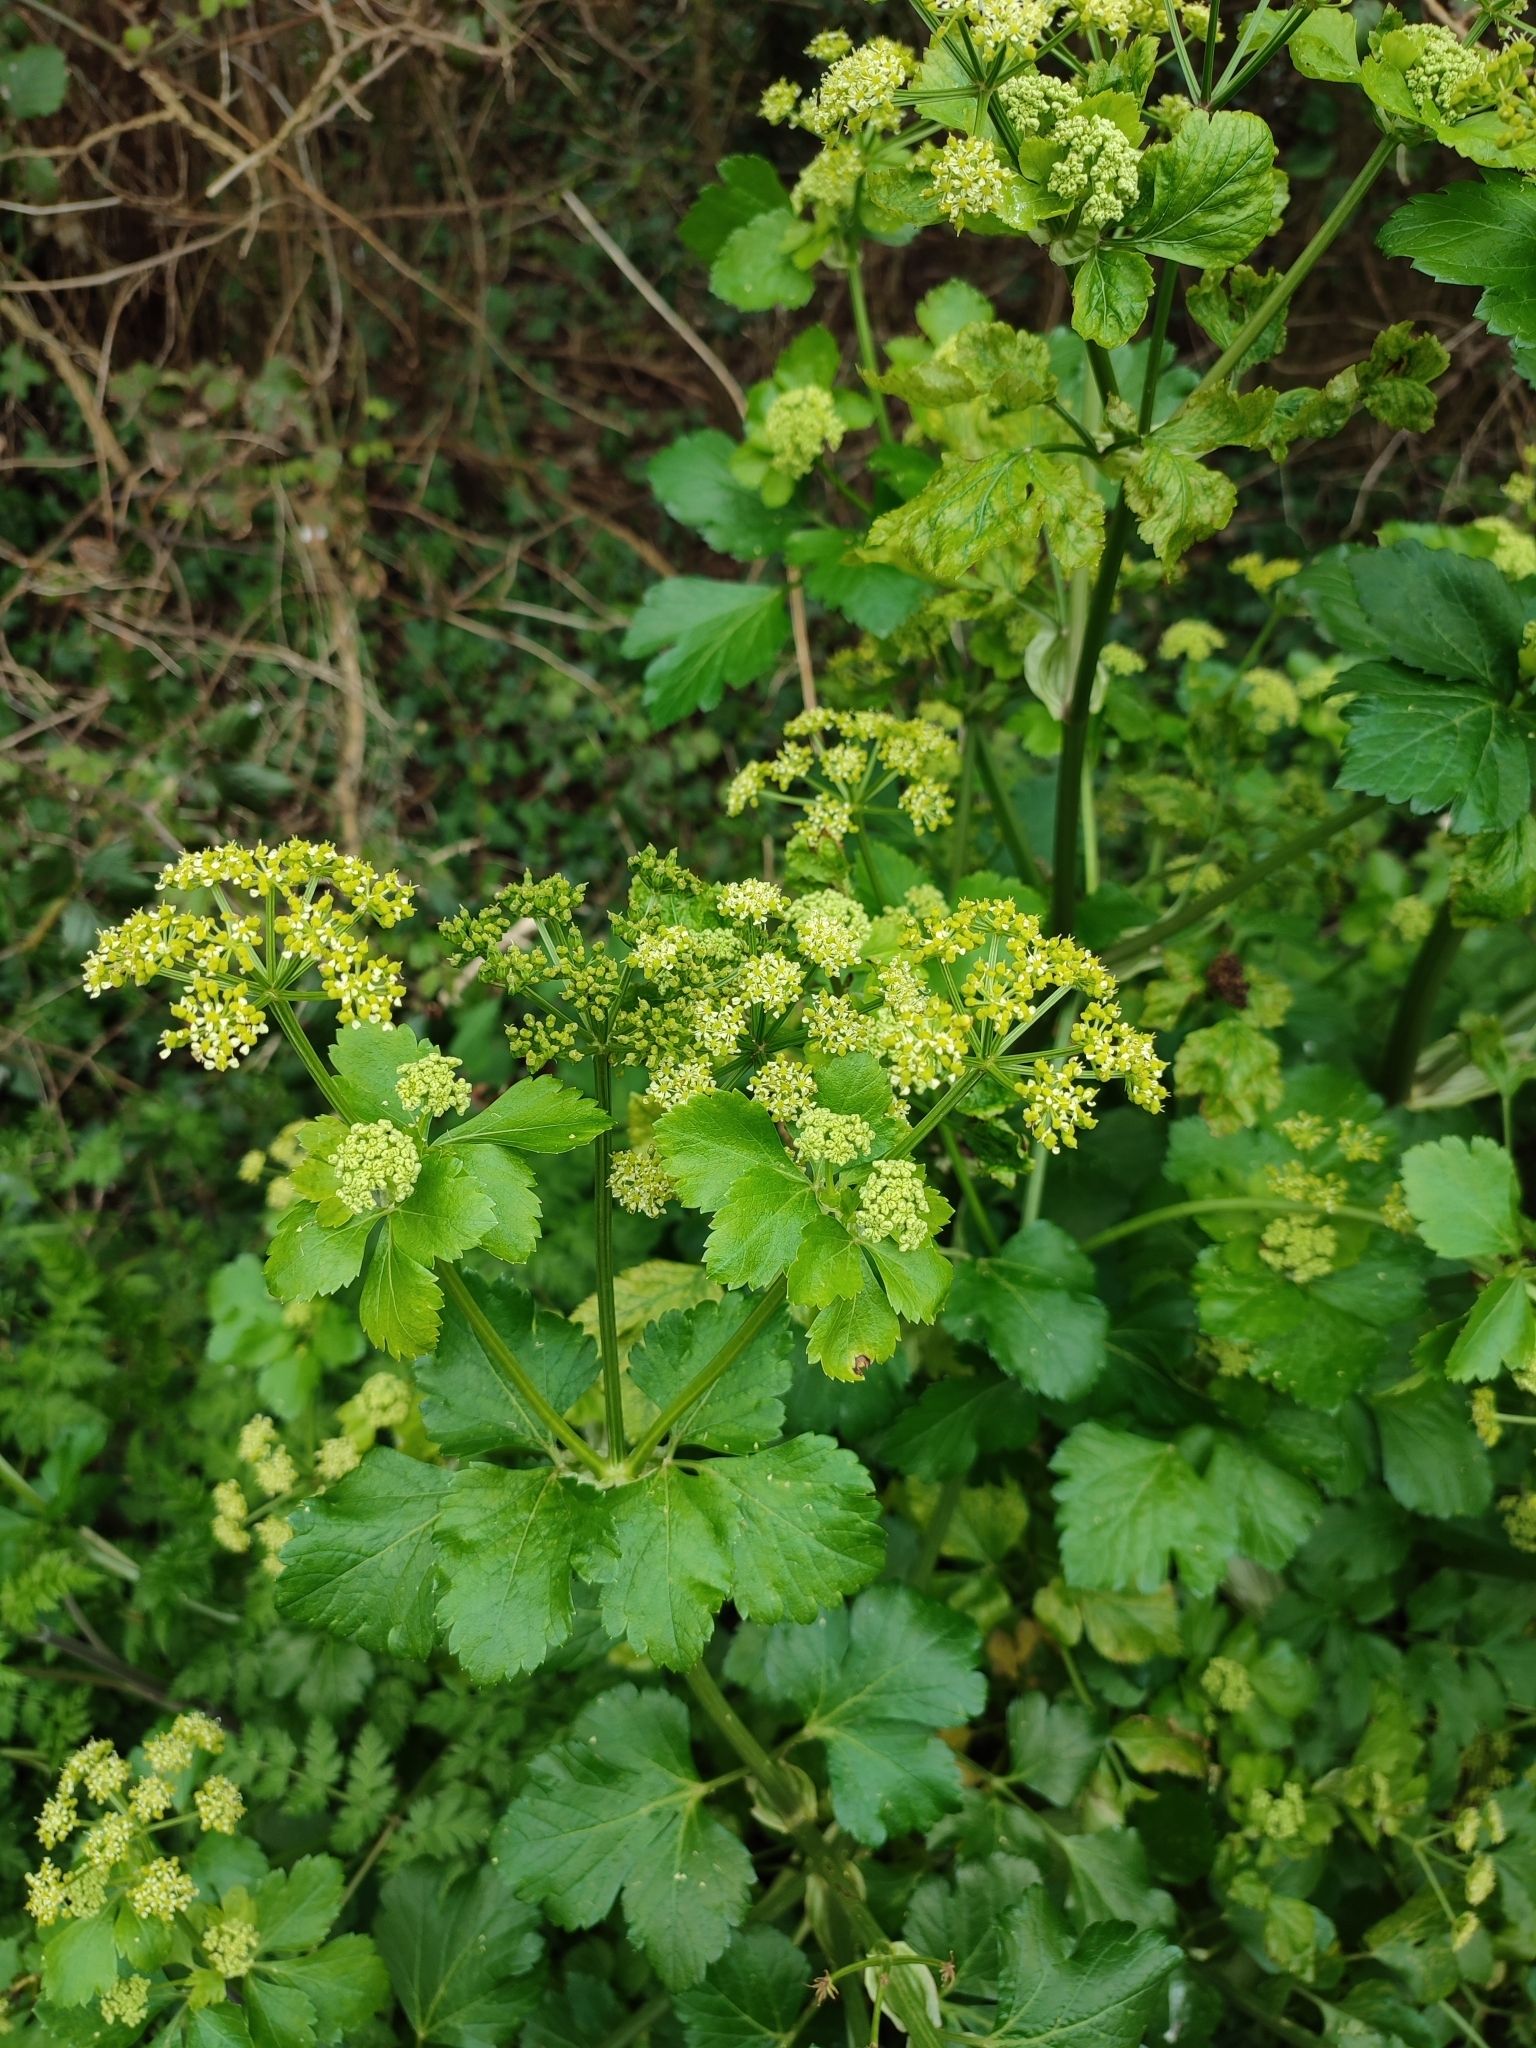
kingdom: Plantae
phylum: Tracheophyta
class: Magnoliopsida
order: Apiales
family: Apiaceae
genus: Smyrnium
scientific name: Smyrnium olusatrum
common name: Alexanders
